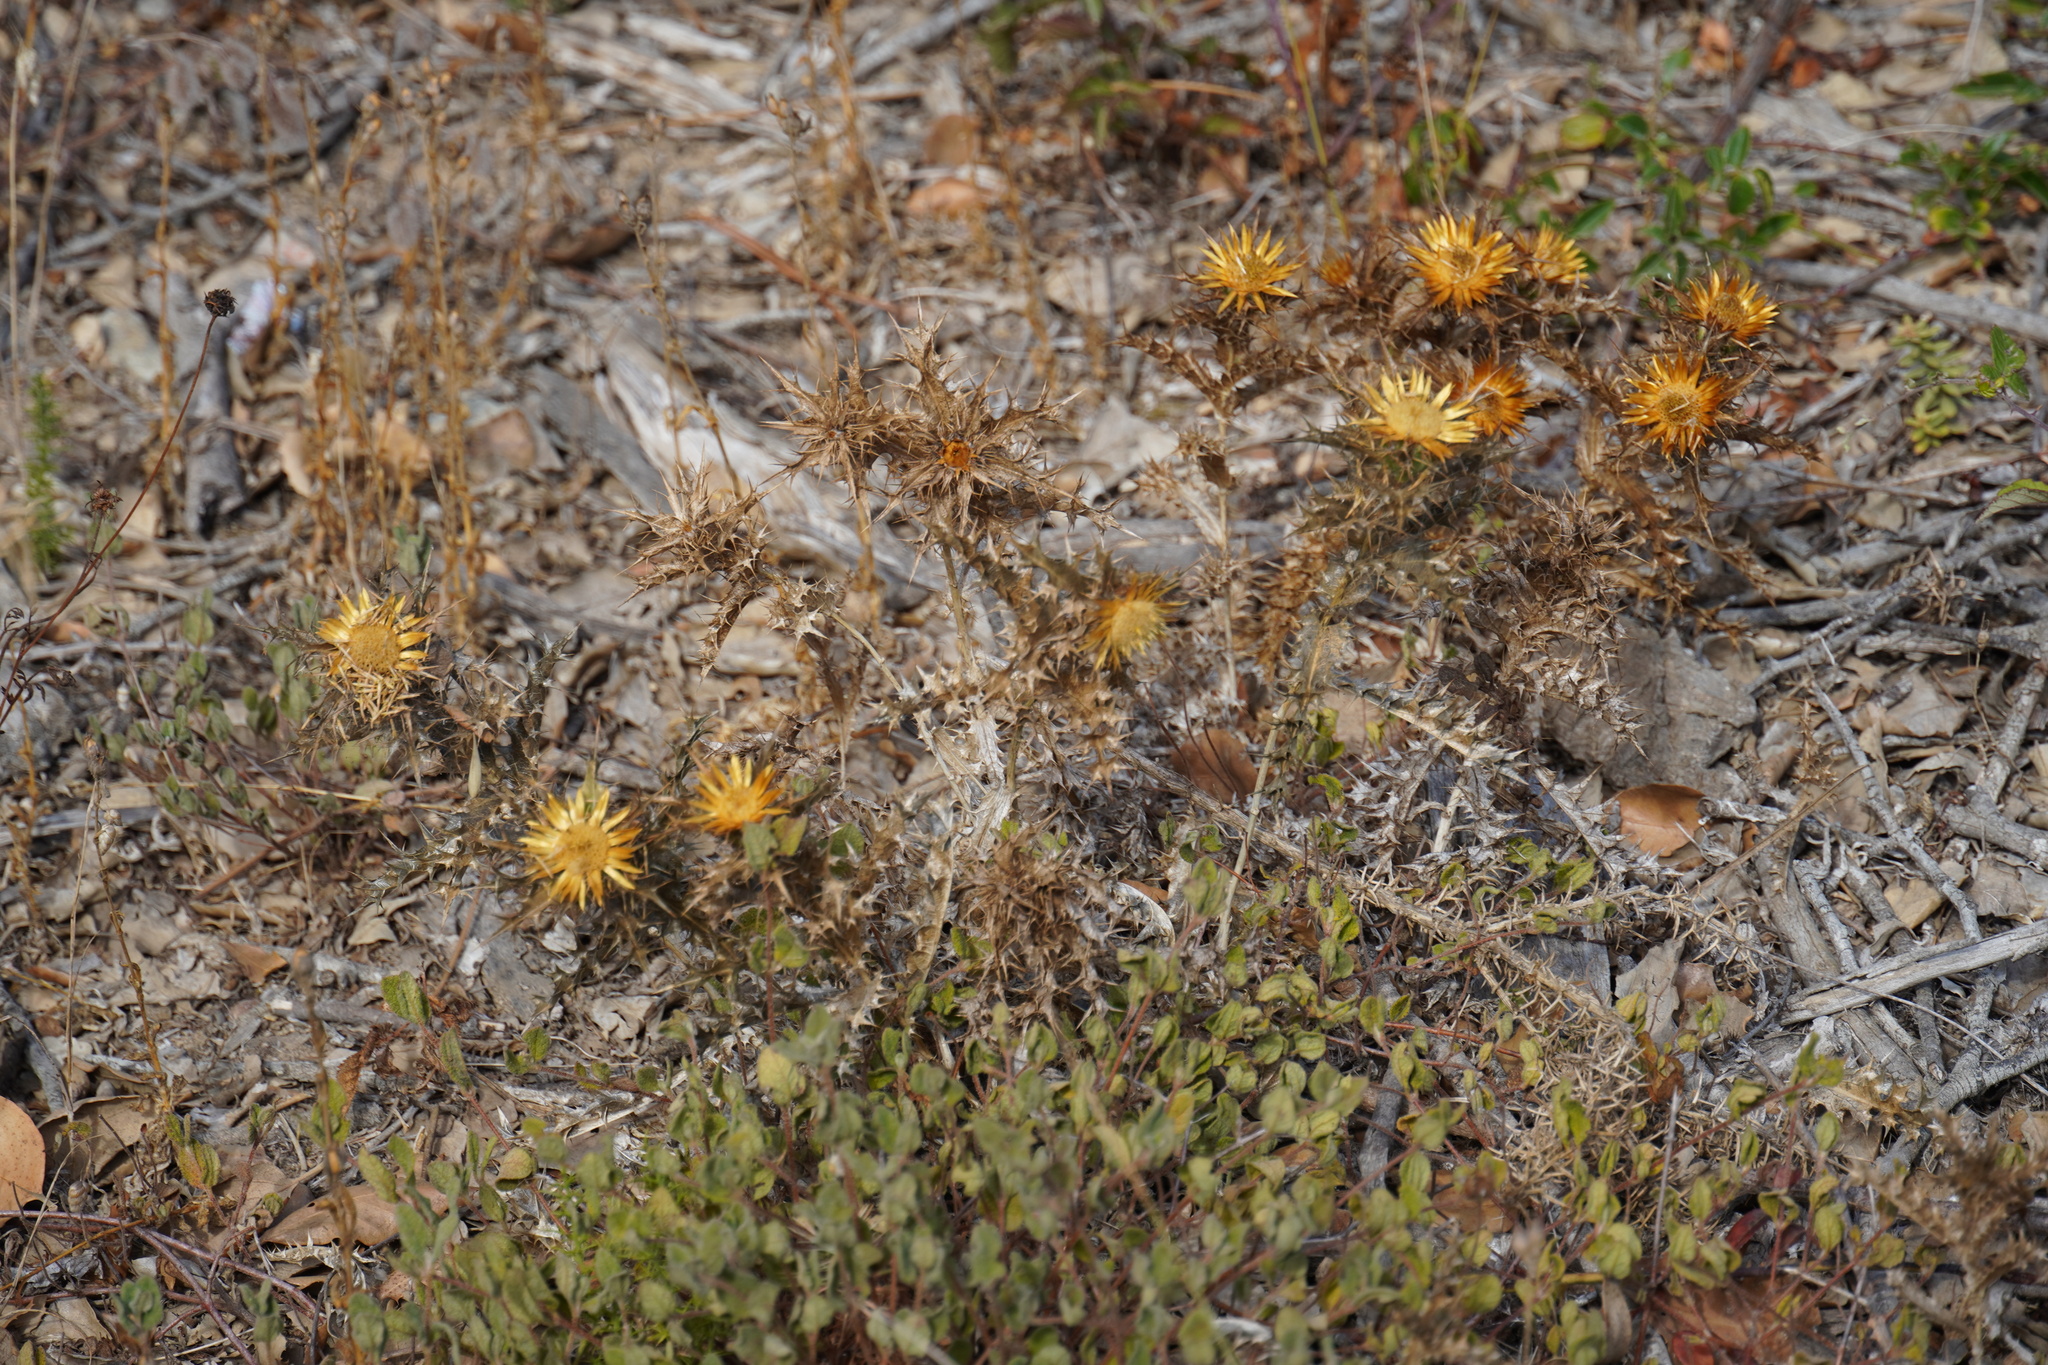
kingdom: Plantae
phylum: Tracheophyta
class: Magnoliopsida
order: Asterales
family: Asteraceae
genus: Carlina
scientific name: Carlina hispanica
